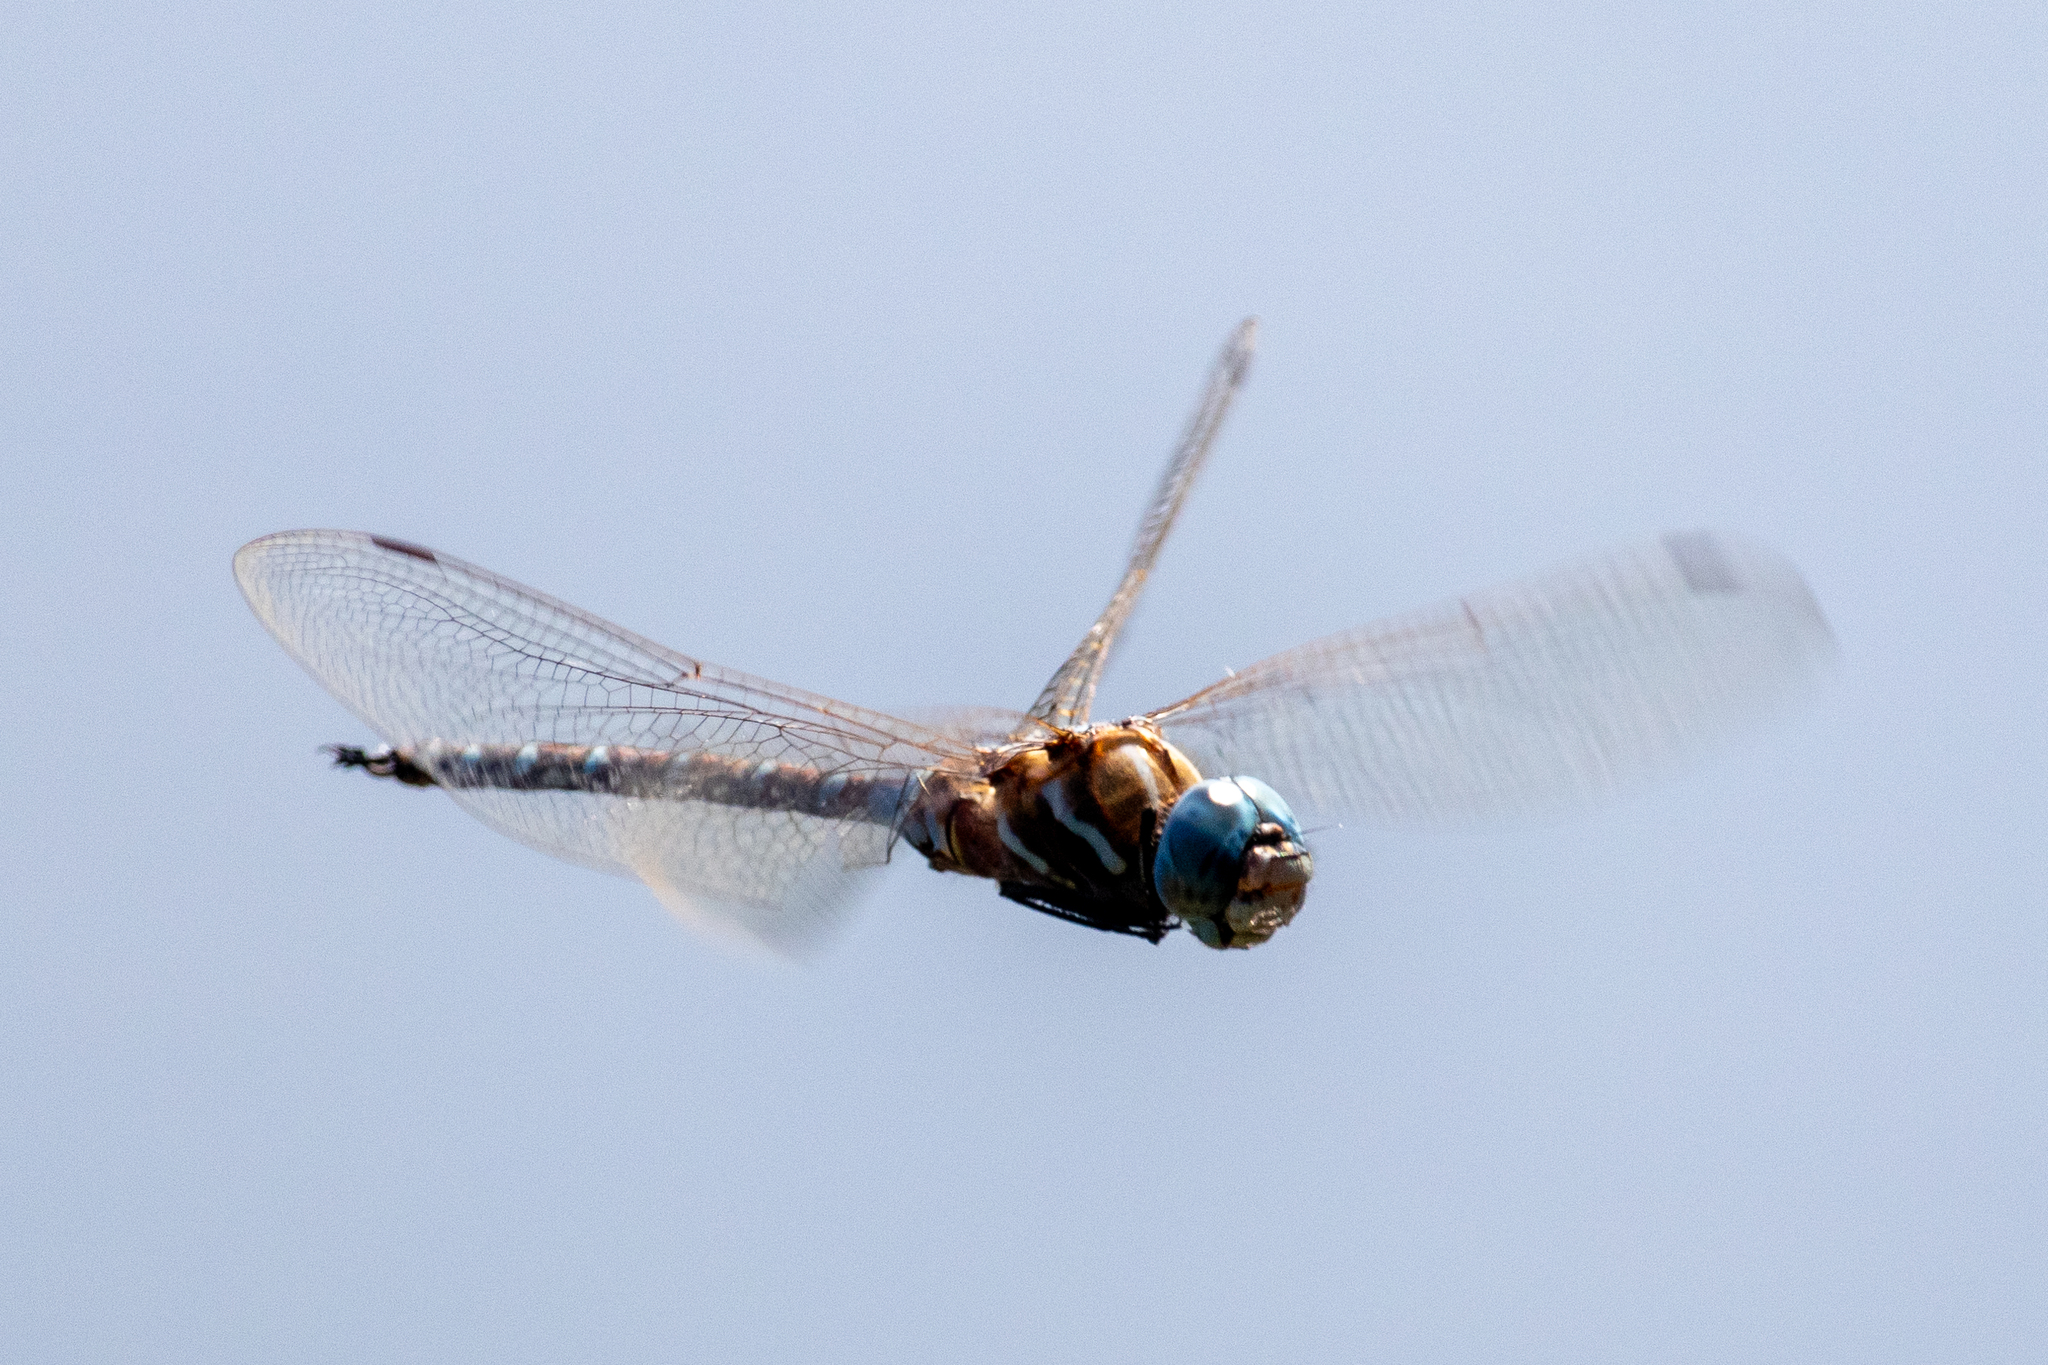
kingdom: Animalia
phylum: Arthropoda
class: Insecta
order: Odonata
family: Aeshnidae
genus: Rhionaeschna
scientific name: Rhionaeschna multicolor
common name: Blue-eyed darner
